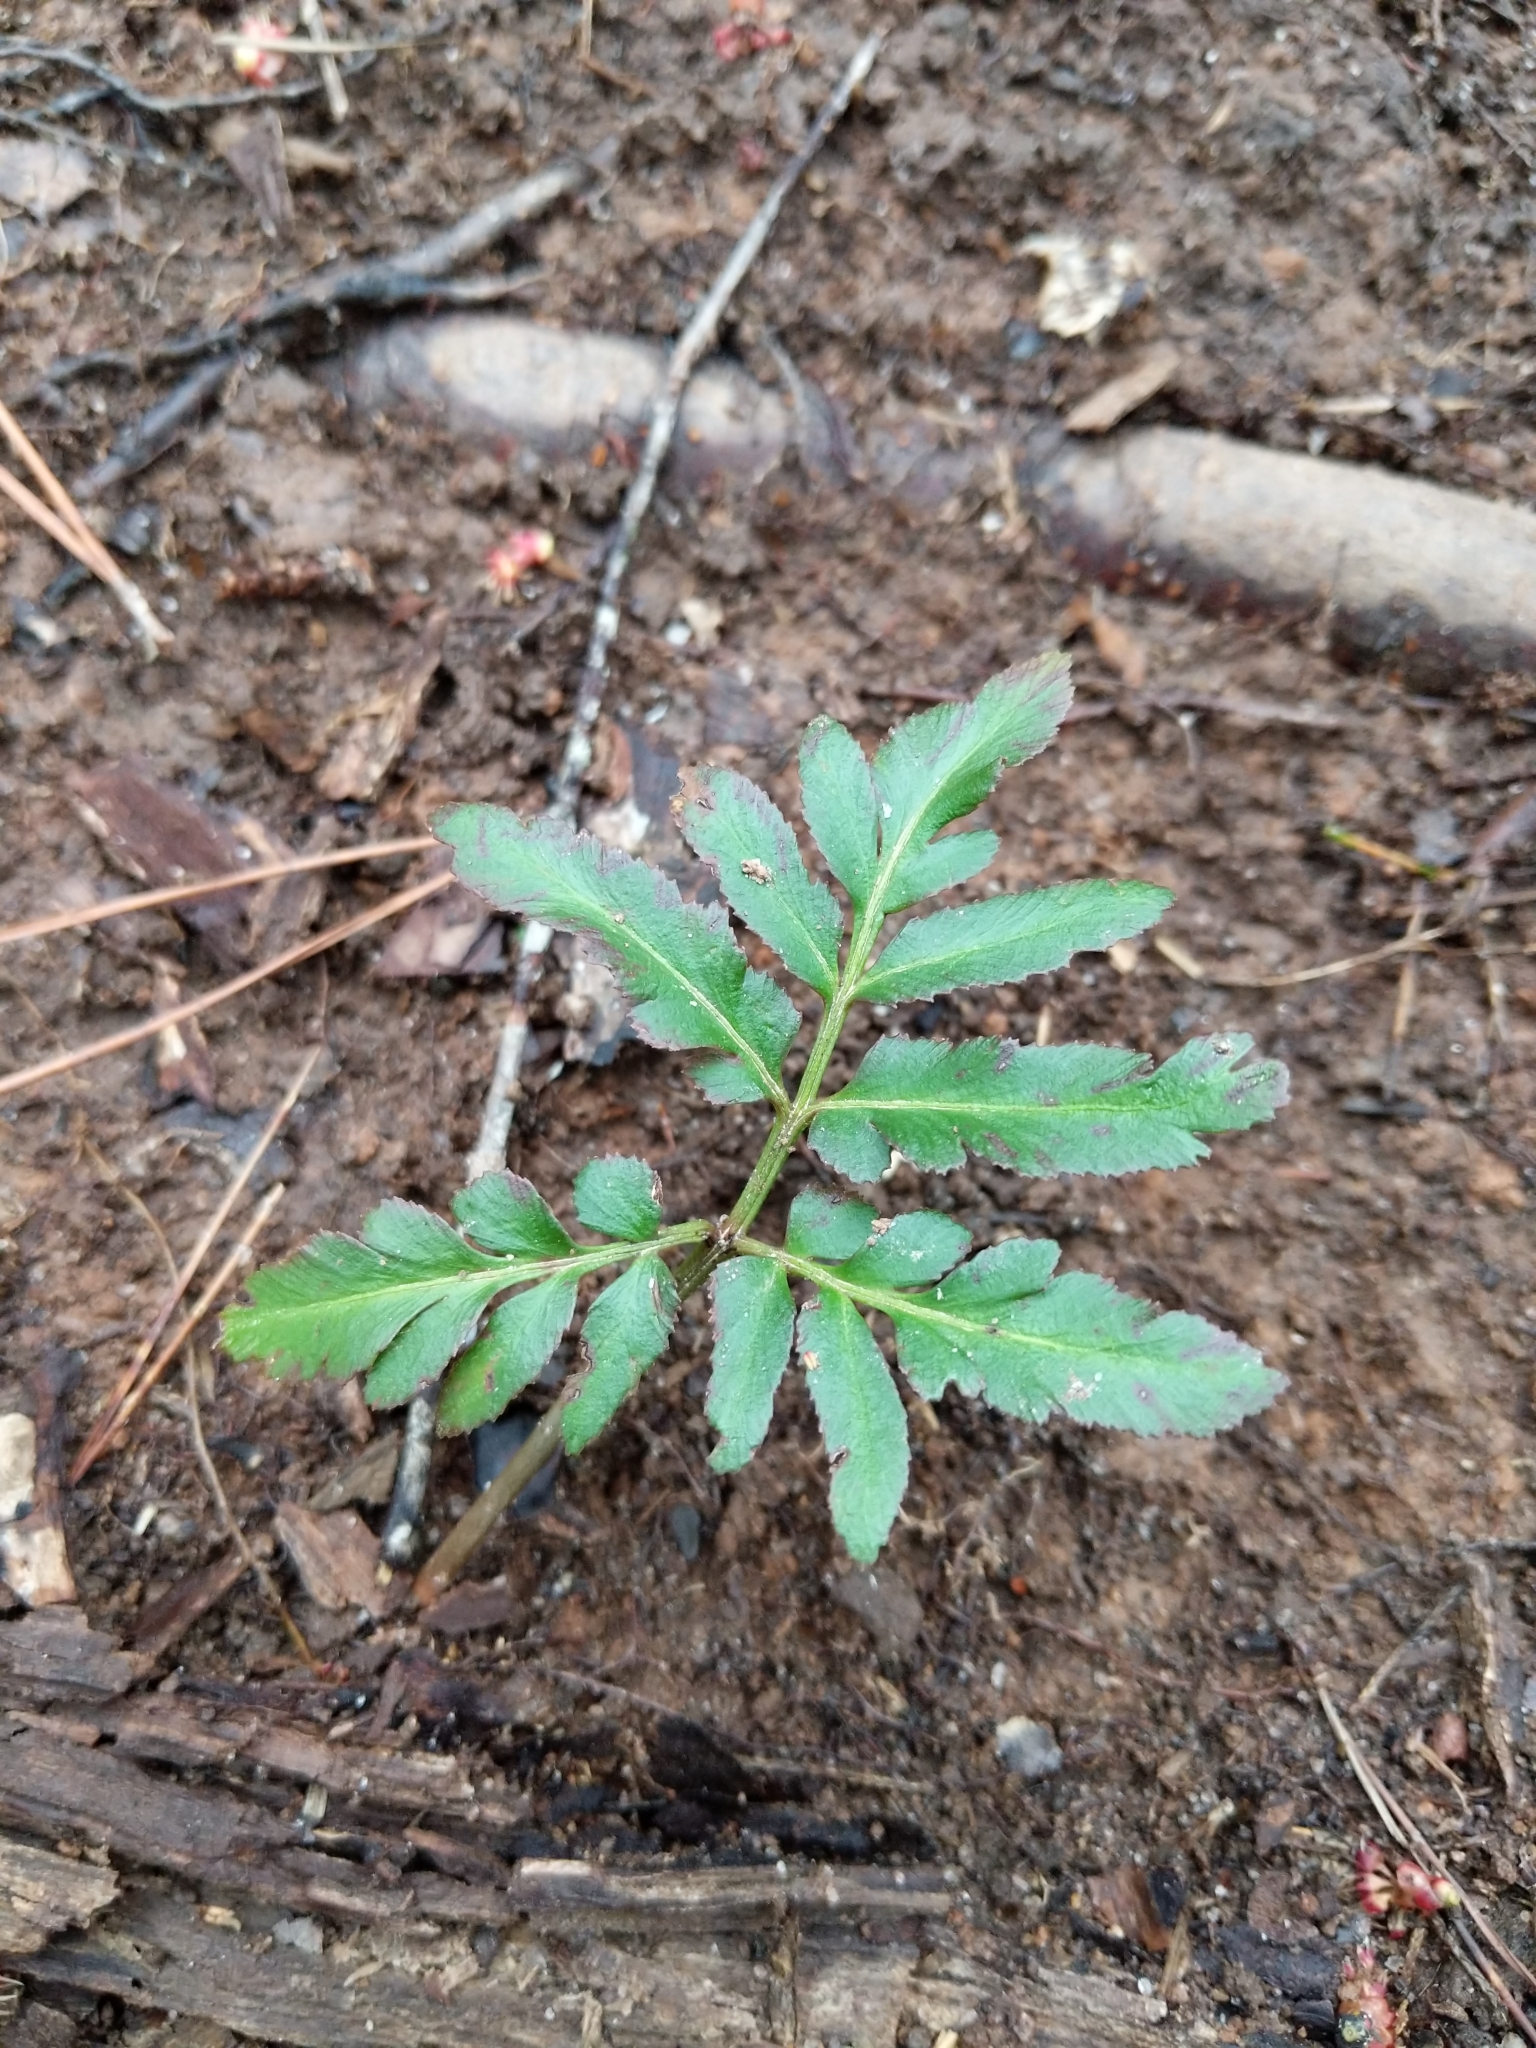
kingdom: Plantae
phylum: Tracheophyta
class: Polypodiopsida
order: Ophioglossales
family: Ophioglossaceae
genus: Sceptridium
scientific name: Sceptridium biternatum
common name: Sparse-lobed grapefern
